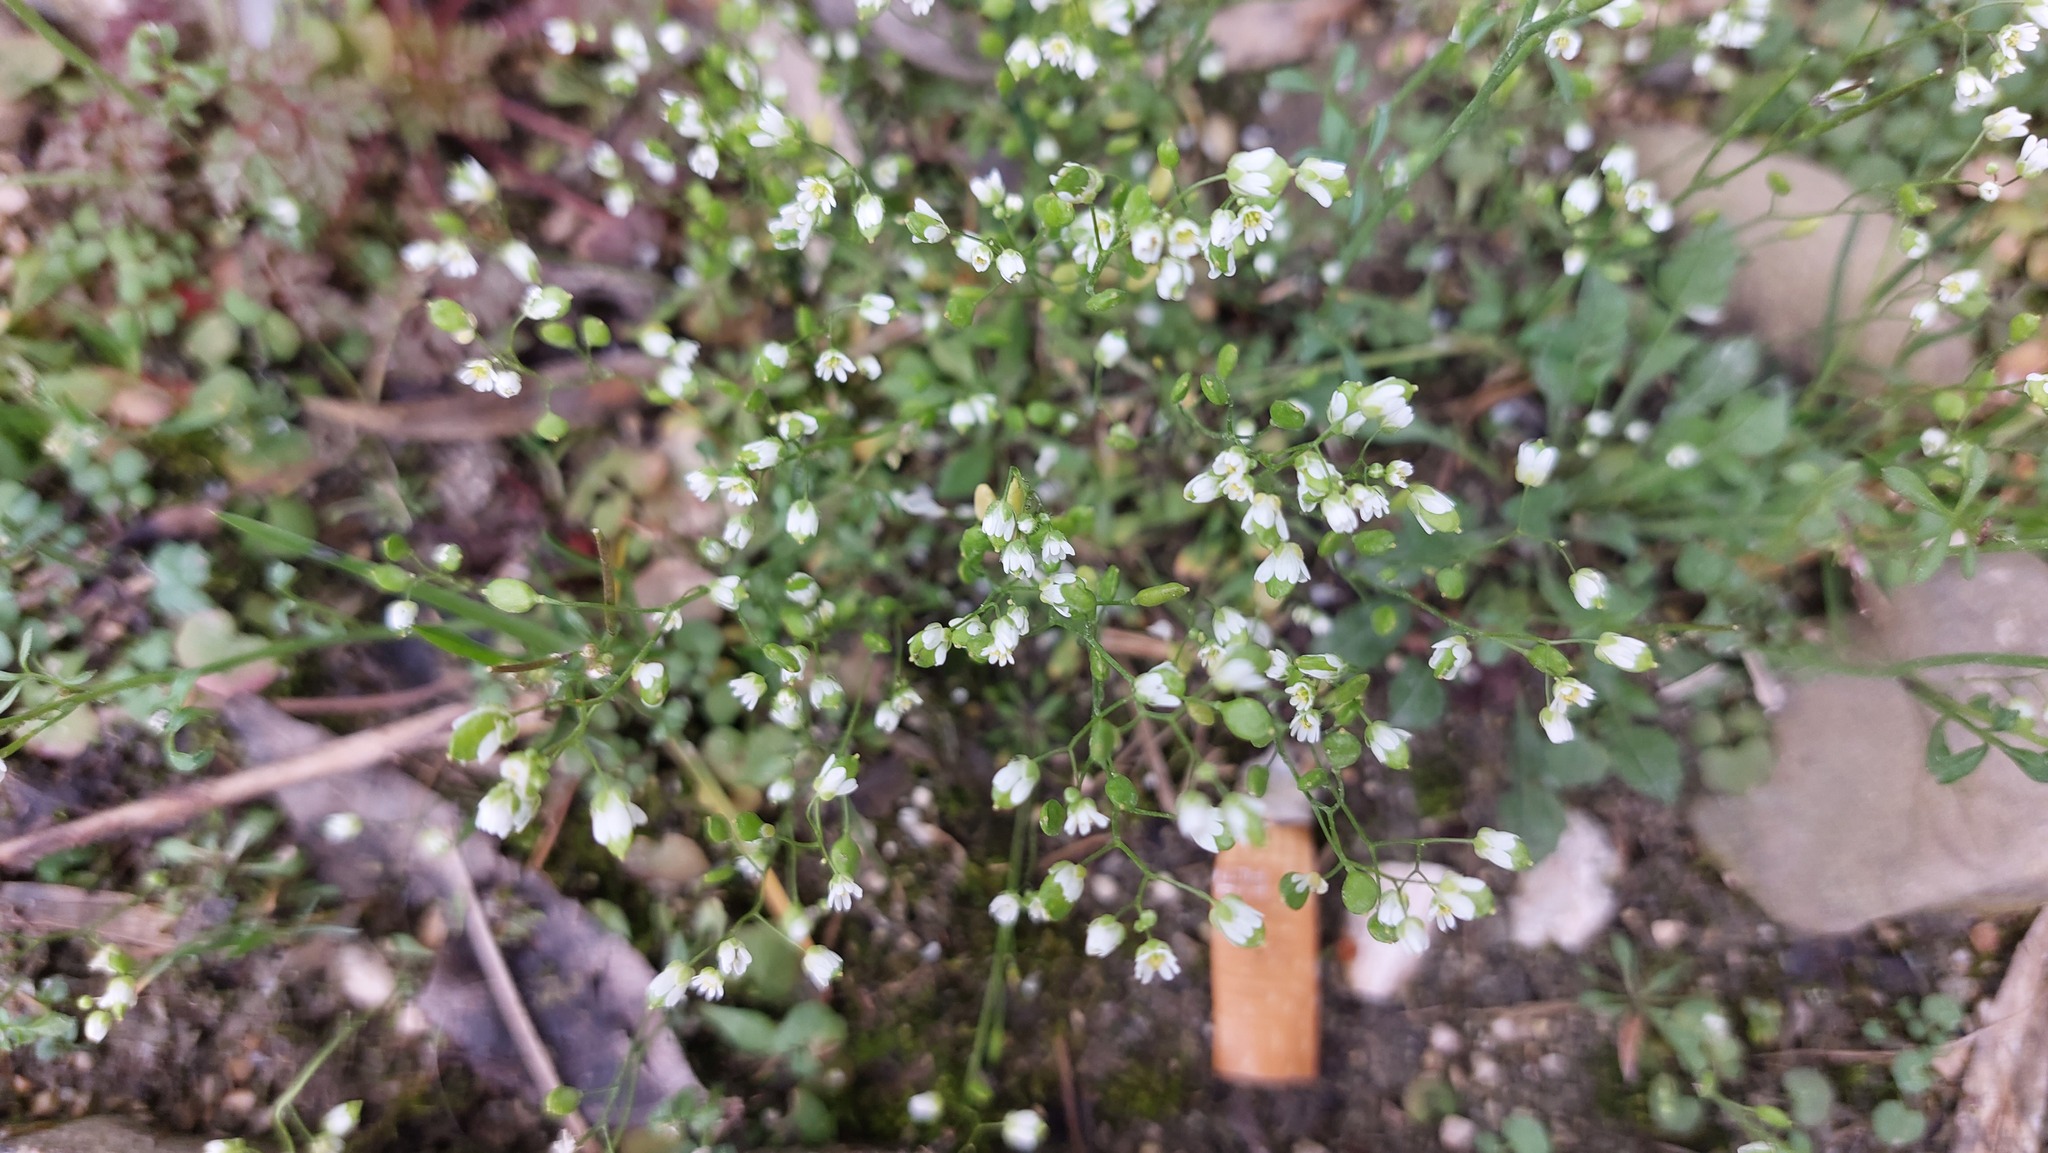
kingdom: Plantae
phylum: Tracheophyta
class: Magnoliopsida
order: Brassicales
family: Brassicaceae
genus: Draba
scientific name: Draba verna
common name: Spring draba
